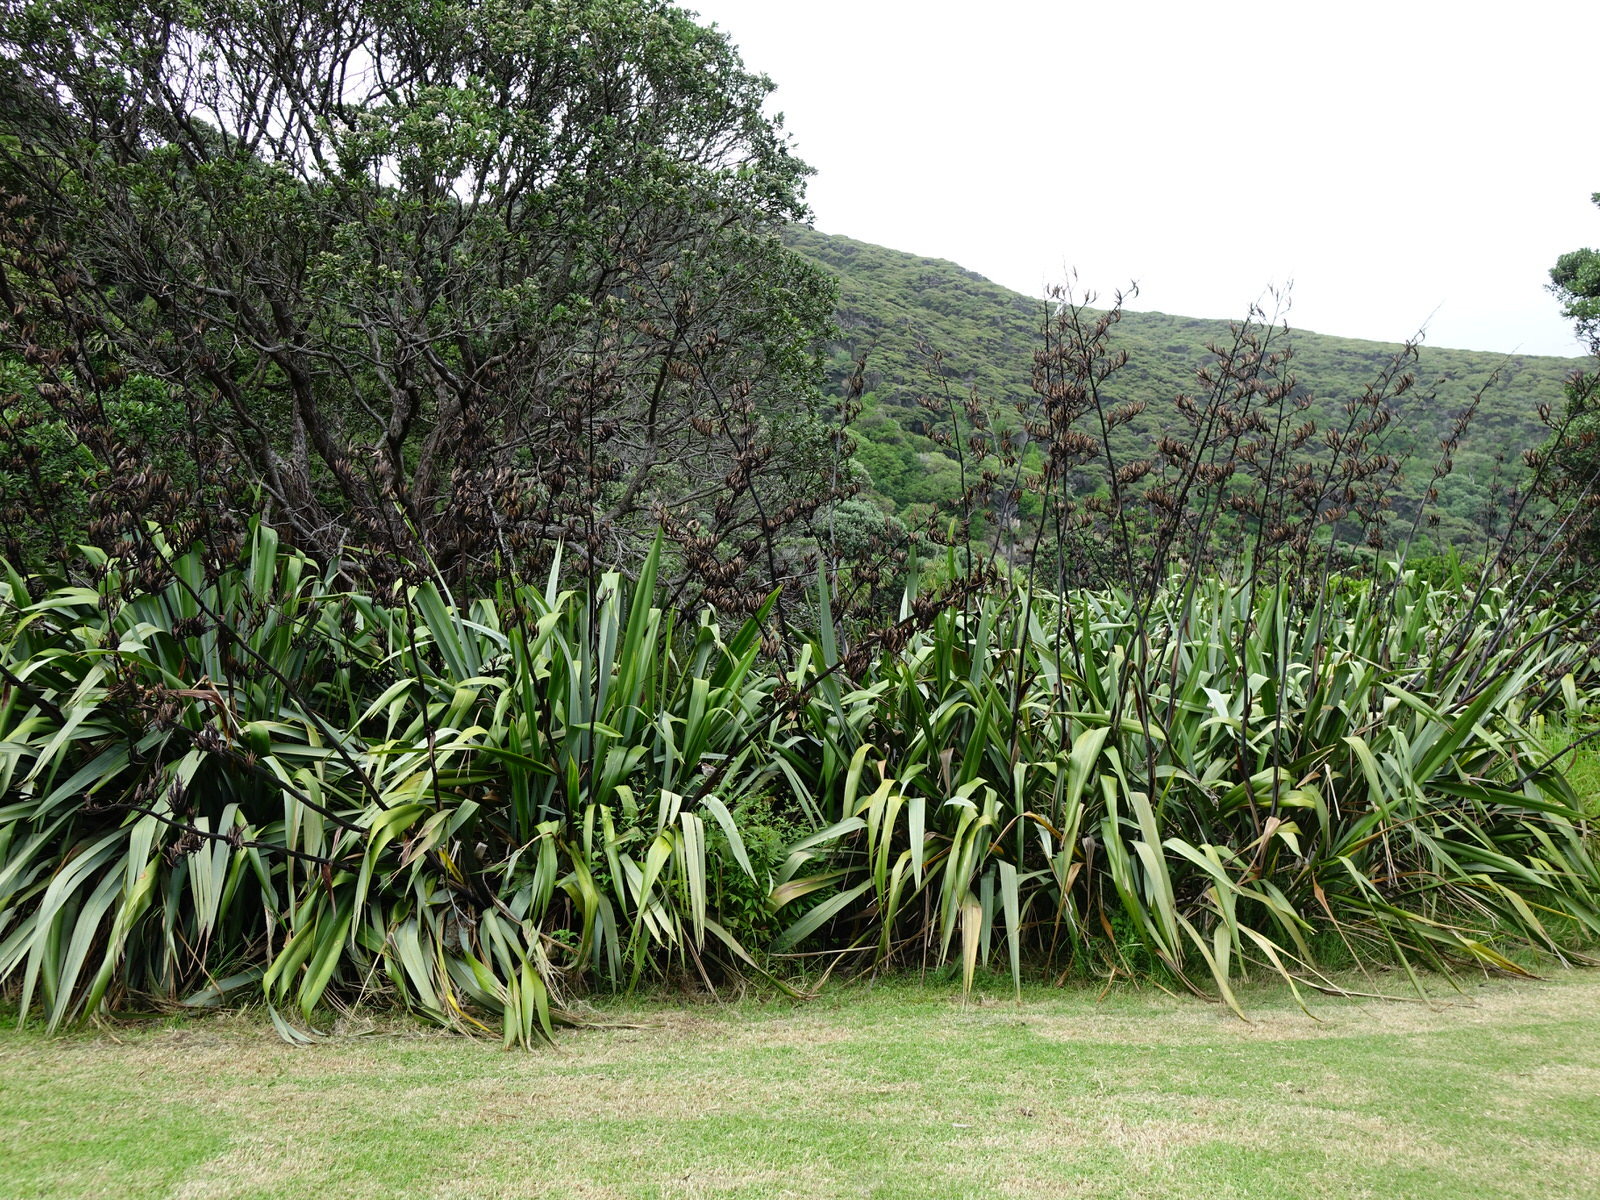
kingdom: Animalia
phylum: Chordata
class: Aves
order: Passeriformes
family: Passeridae
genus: Passer
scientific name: Passer domesticus
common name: House sparrow
